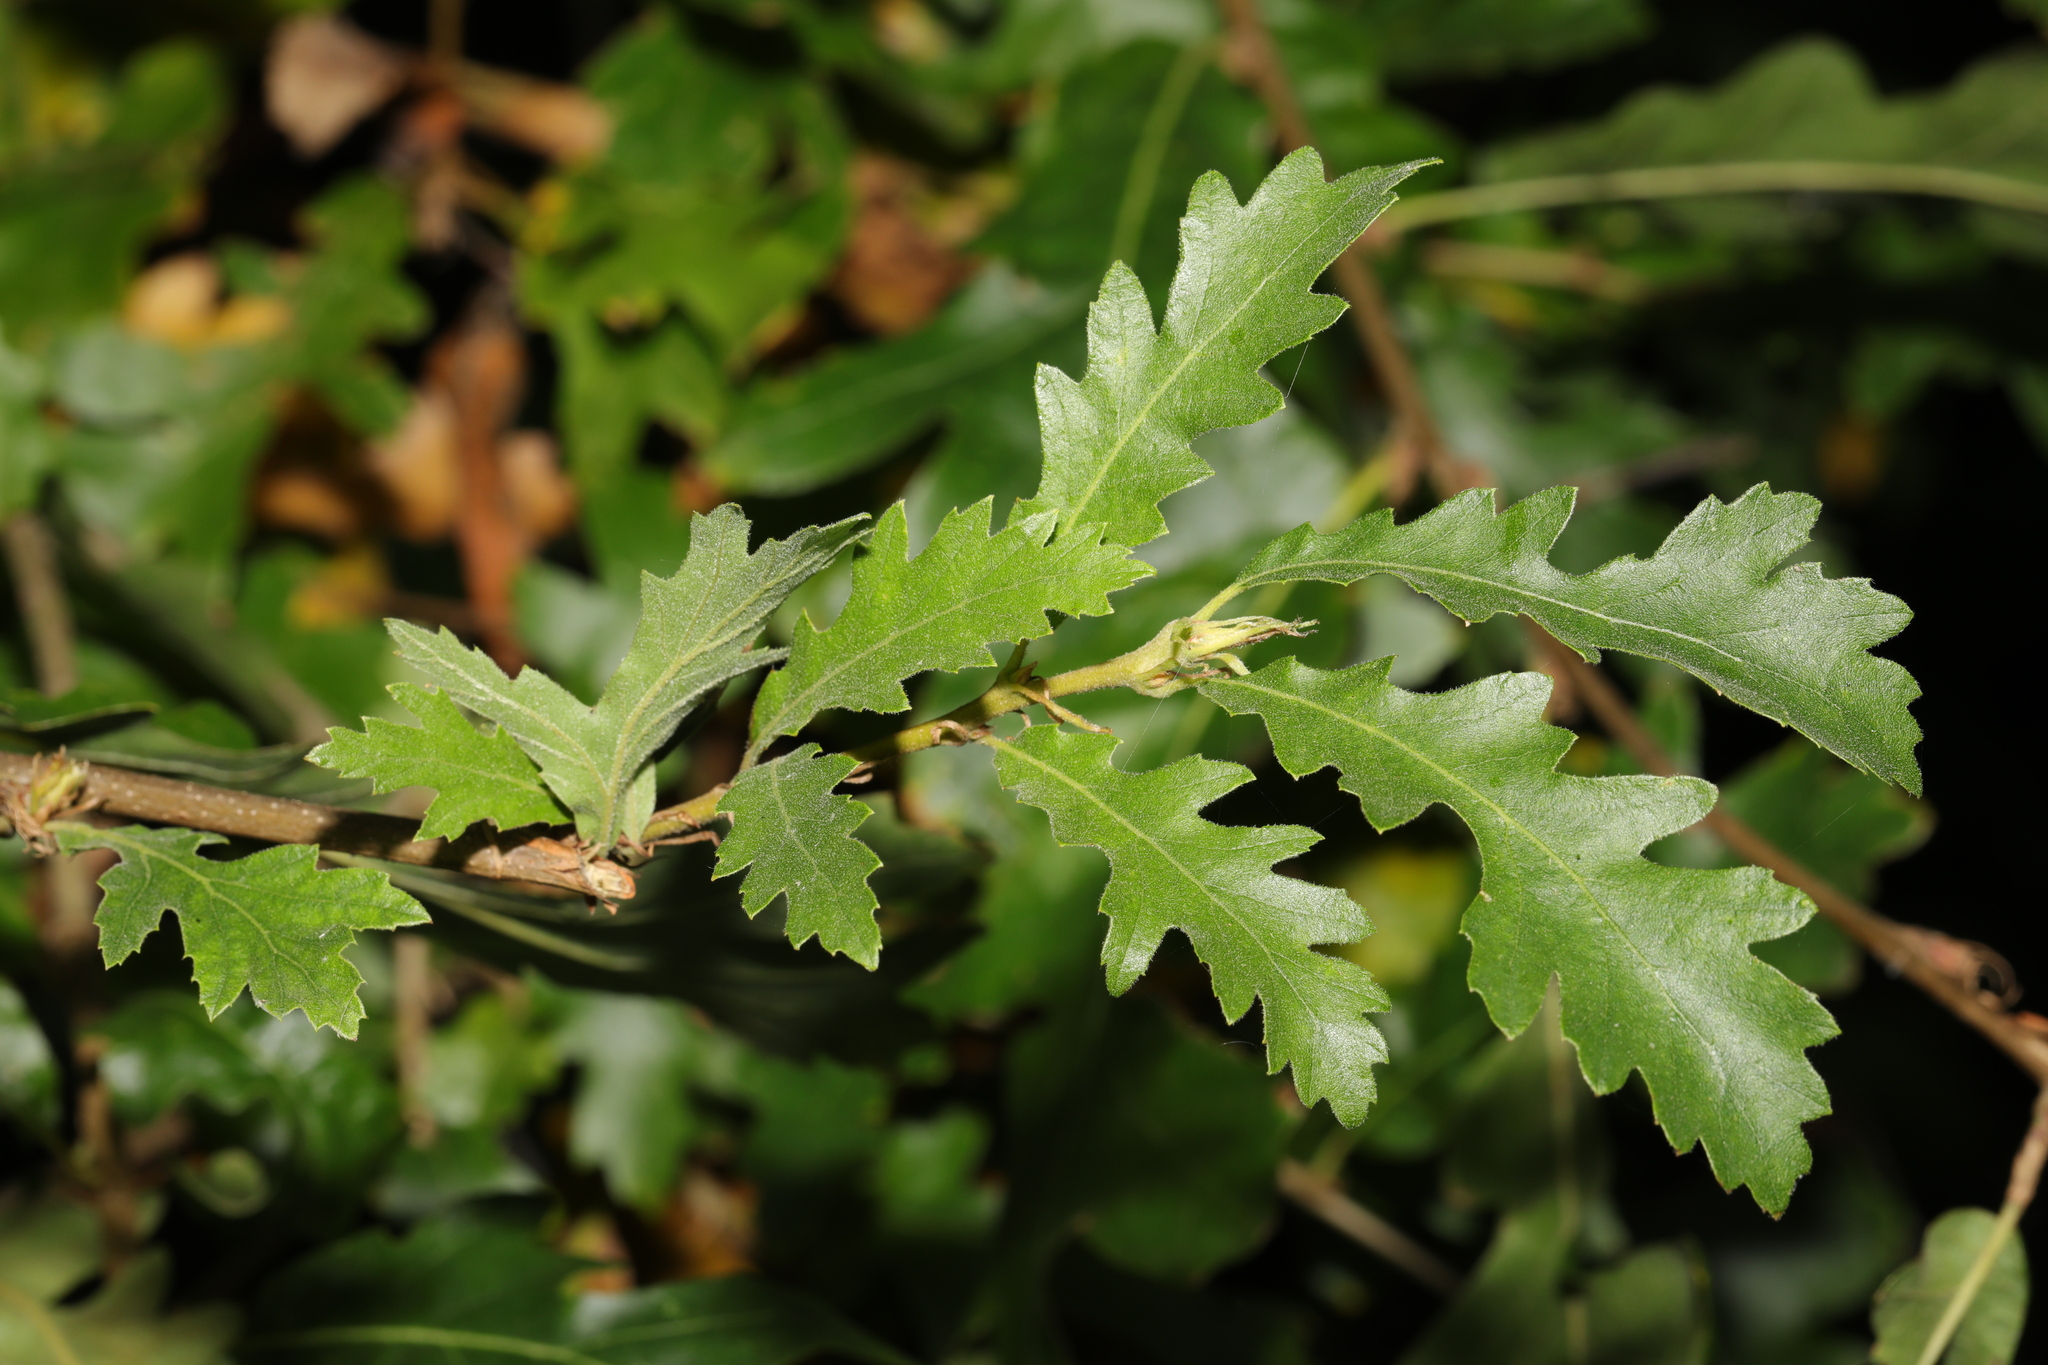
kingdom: Plantae
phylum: Tracheophyta
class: Magnoliopsida
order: Fagales
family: Fagaceae
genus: Quercus
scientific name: Quercus cerris
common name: Turkey oak
